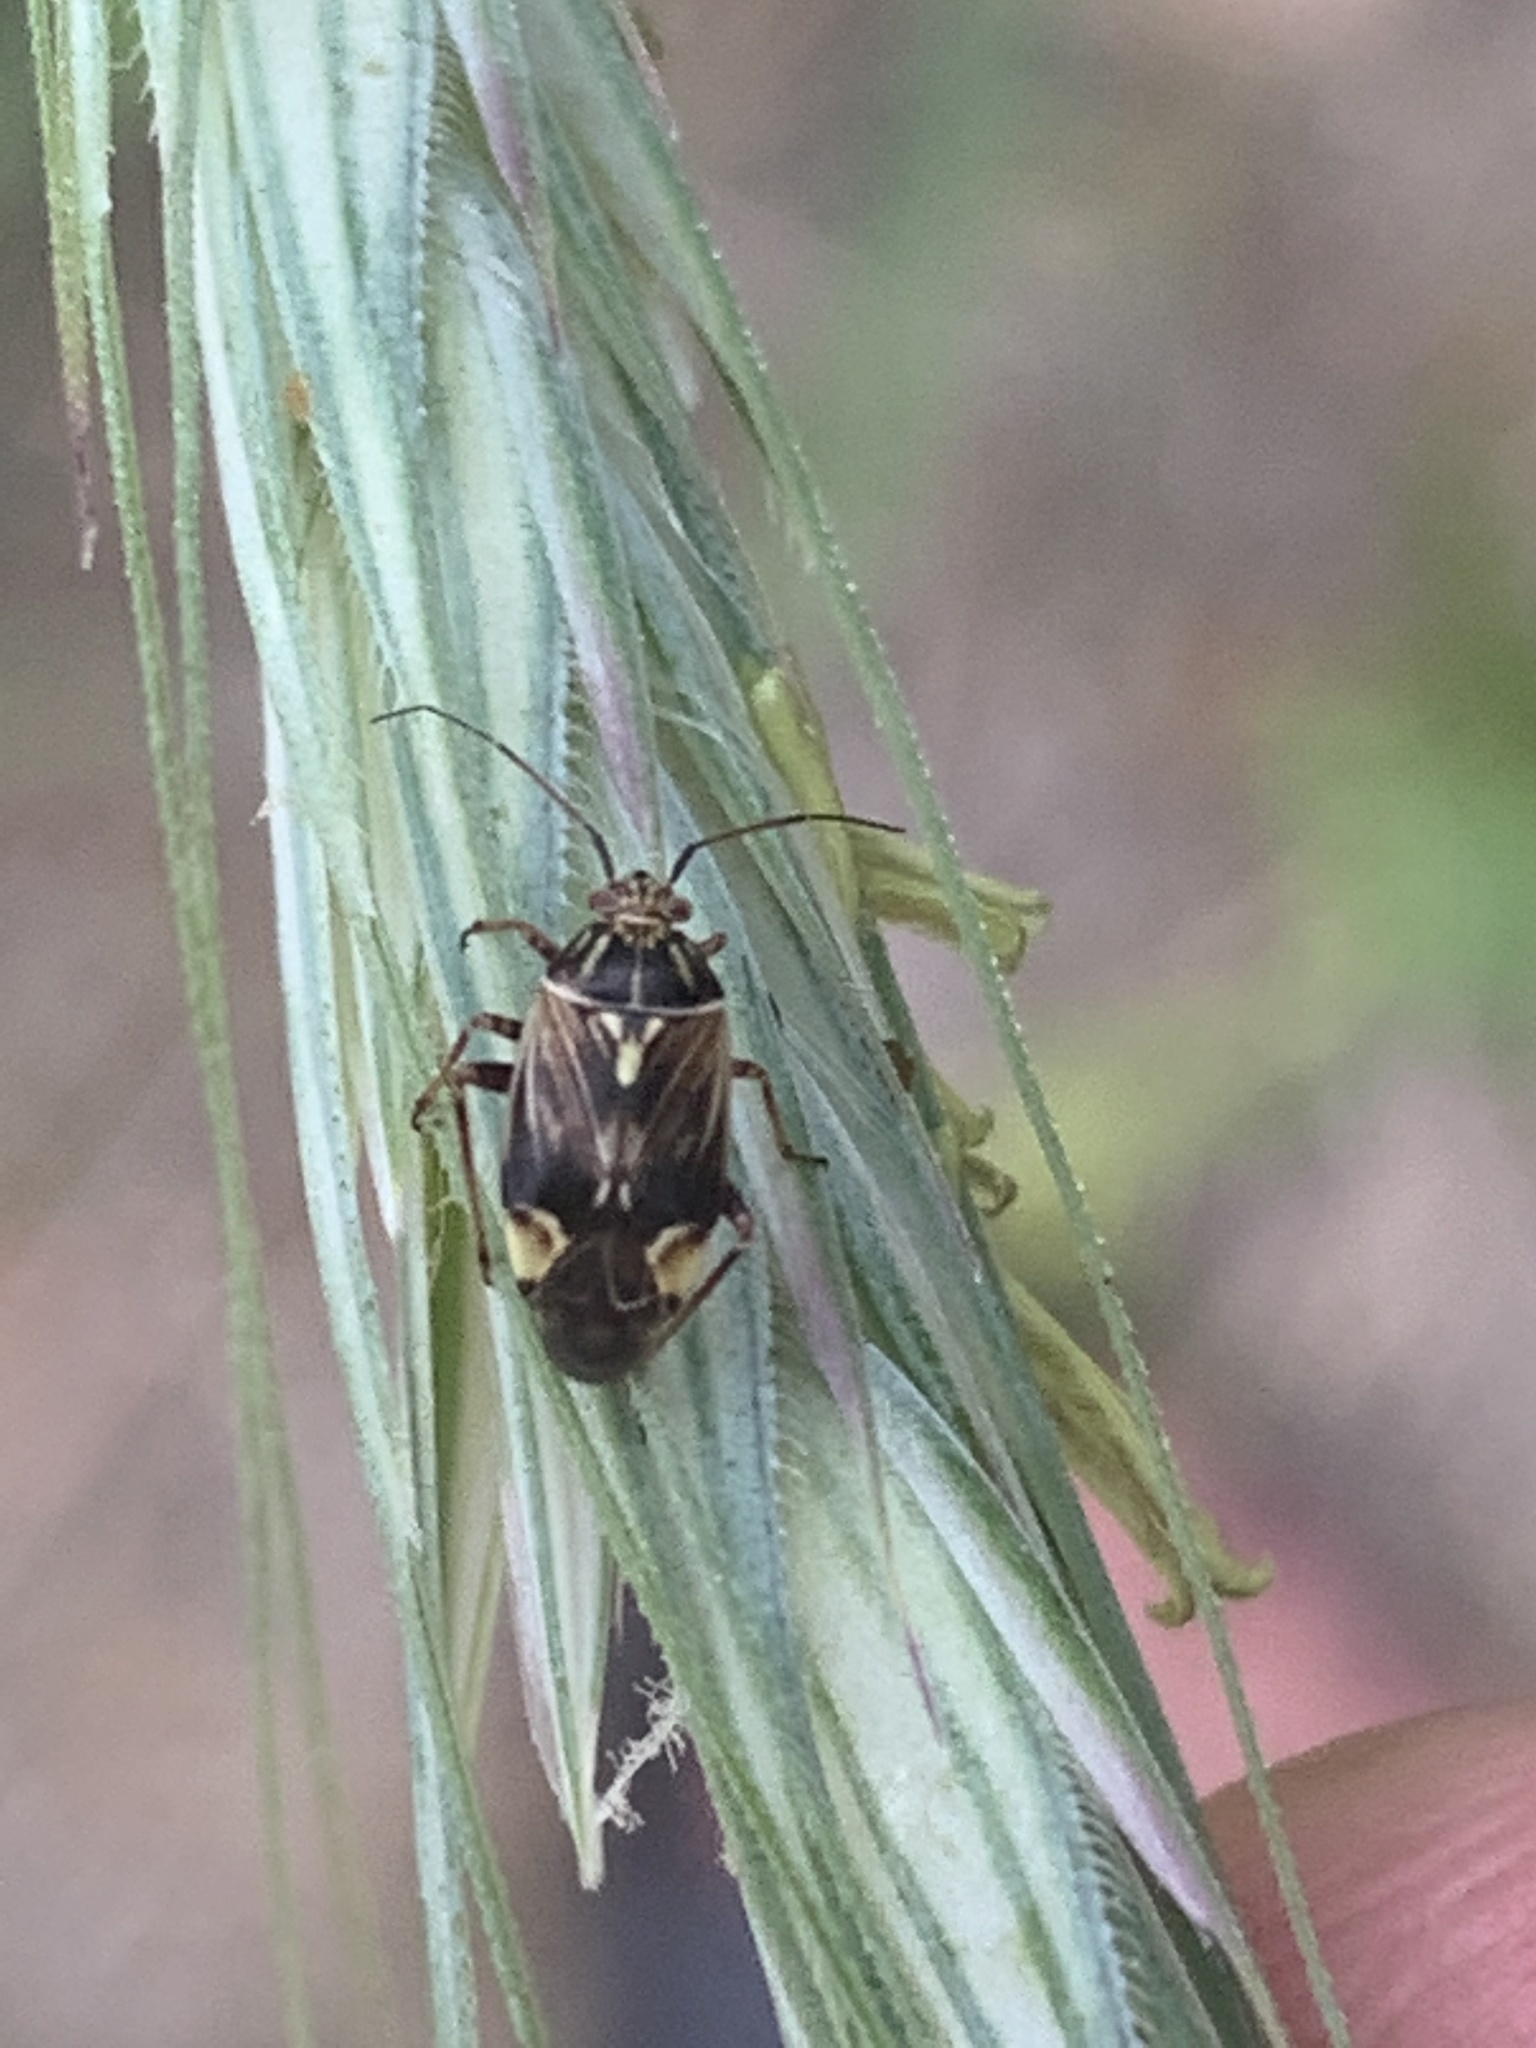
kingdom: Animalia
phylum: Arthropoda
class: Insecta
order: Hemiptera
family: Miridae
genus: Lygus
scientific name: Lygus lineolaris
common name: North american tarnished plant bug
